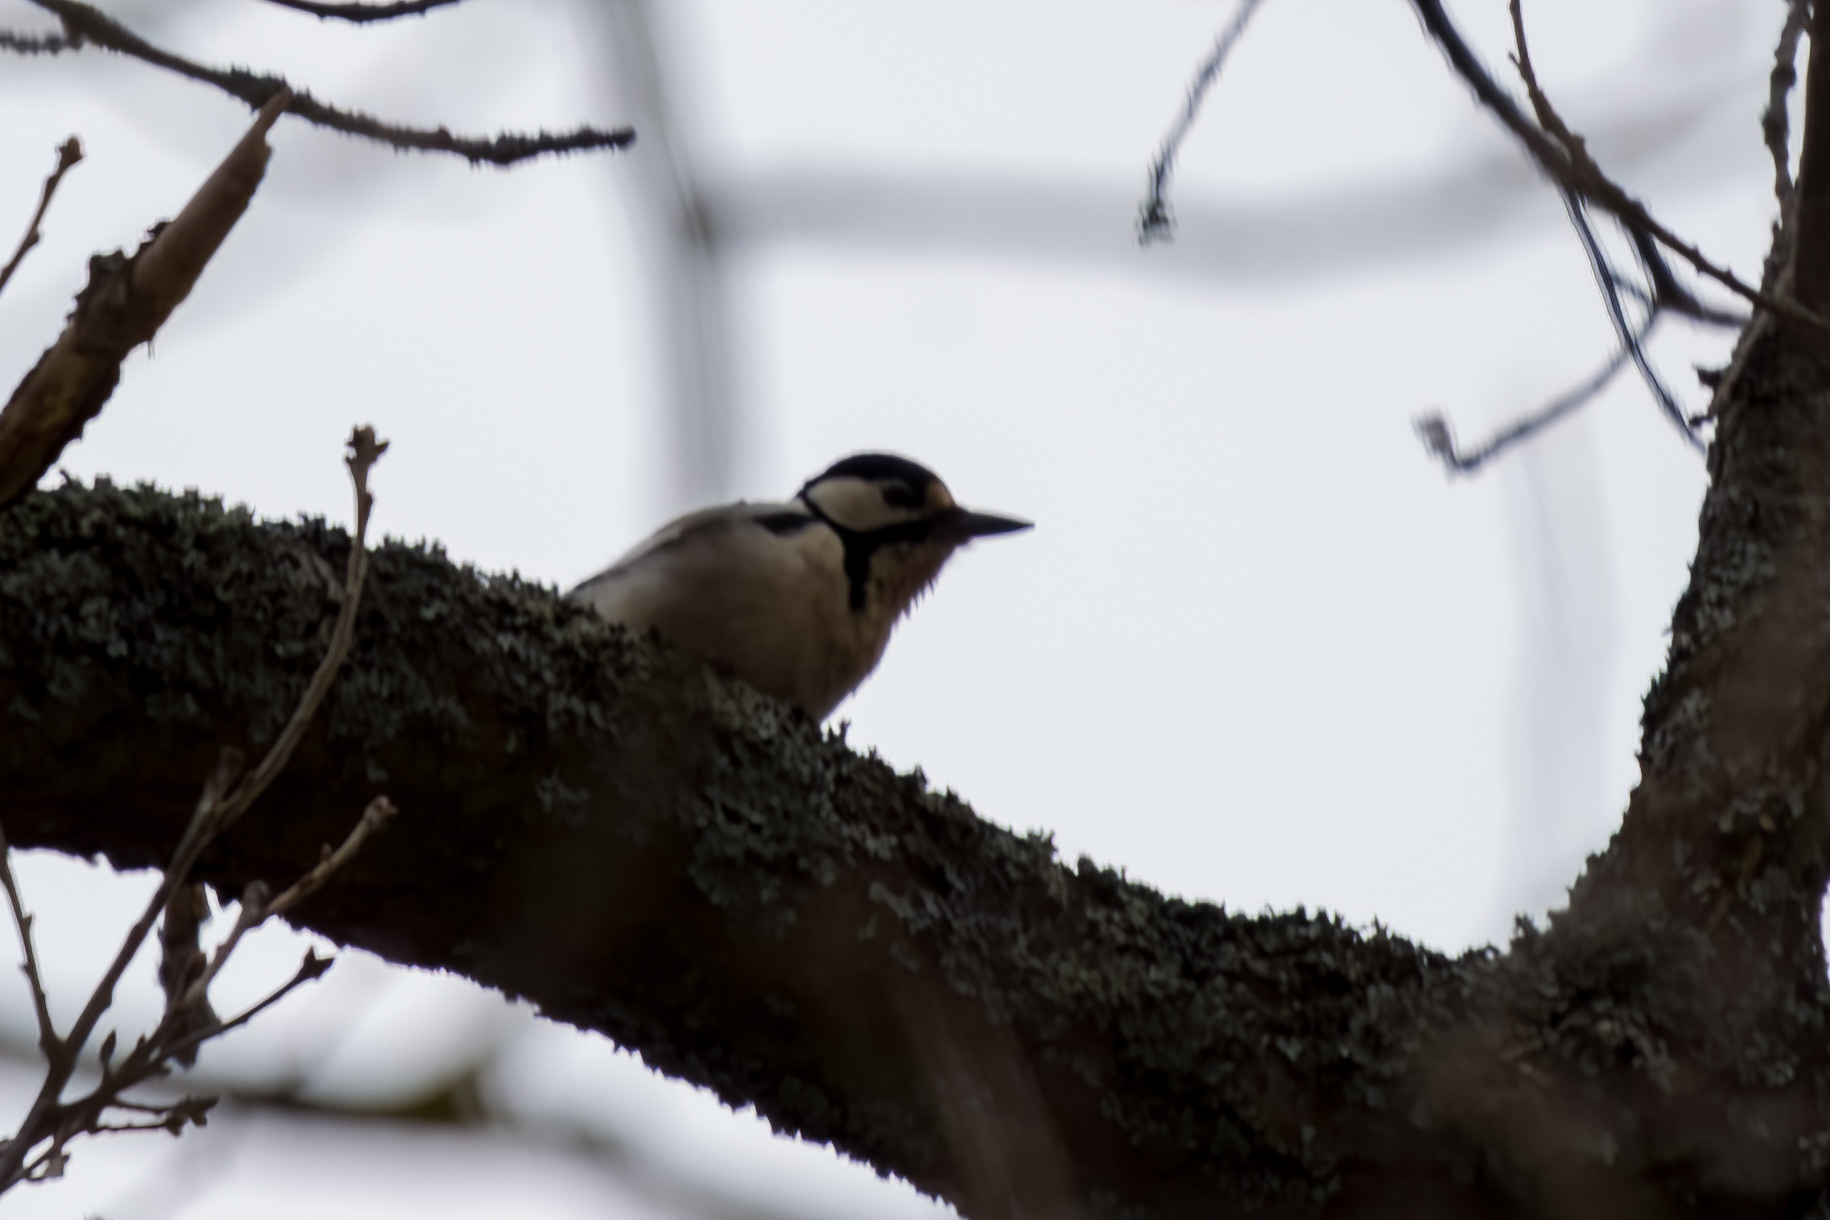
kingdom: Animalia
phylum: Chordata
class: Aves
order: Piciformes
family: Picidae
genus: Dendrocopos
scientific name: Dendrocopos major
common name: Great spotted woodpecker
